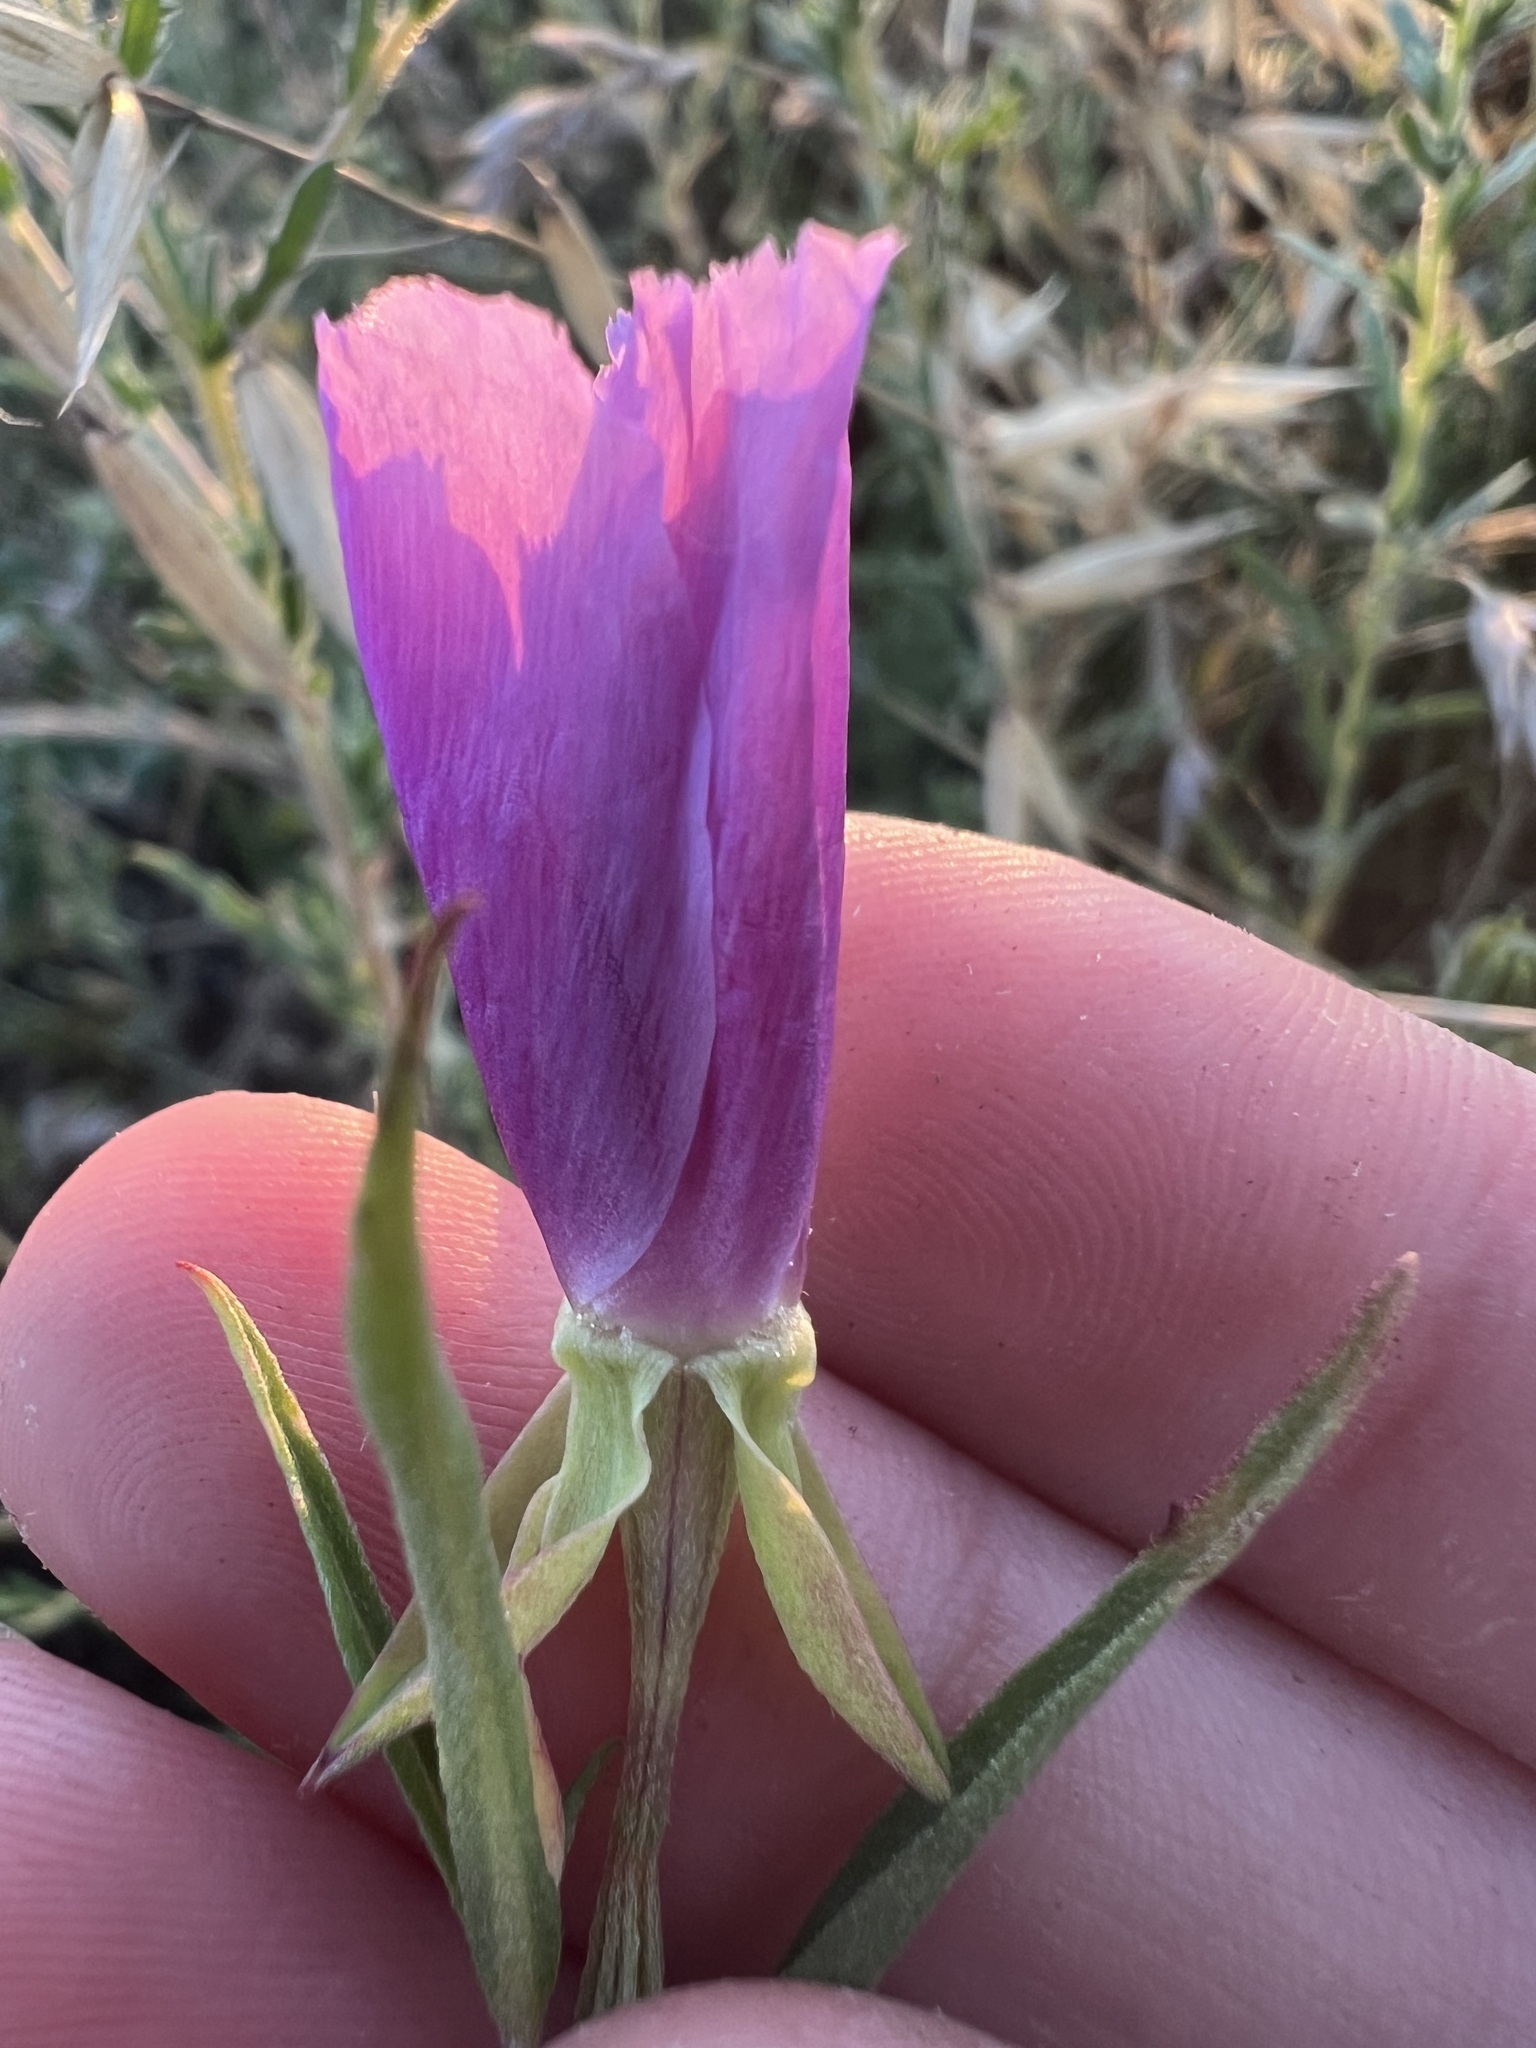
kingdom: Plantae
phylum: Tracheophyta
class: Magnoliopsida
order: Myrtales
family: Onagraceae
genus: Clarkia
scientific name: Clarkia purpurea
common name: Purple clarkia
